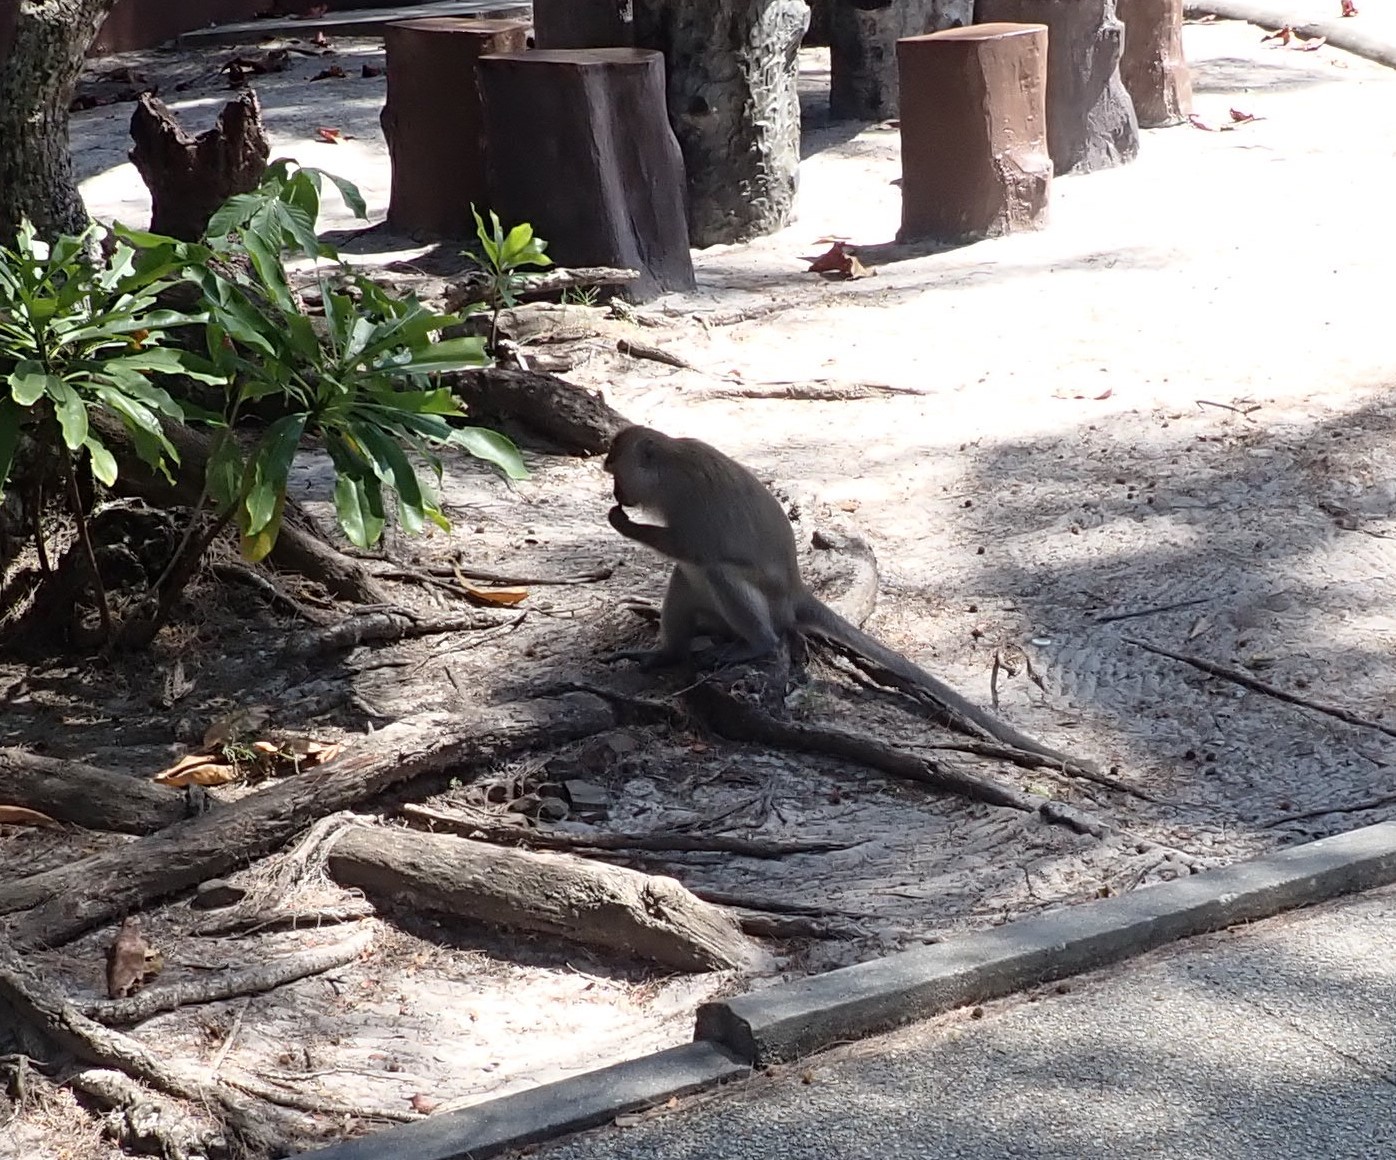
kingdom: Animalia
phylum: Chordata
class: Mammalia
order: Primates
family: Cercopithecidae
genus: Macaca
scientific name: Macaca fascicularis
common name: Crab-eating macaque
